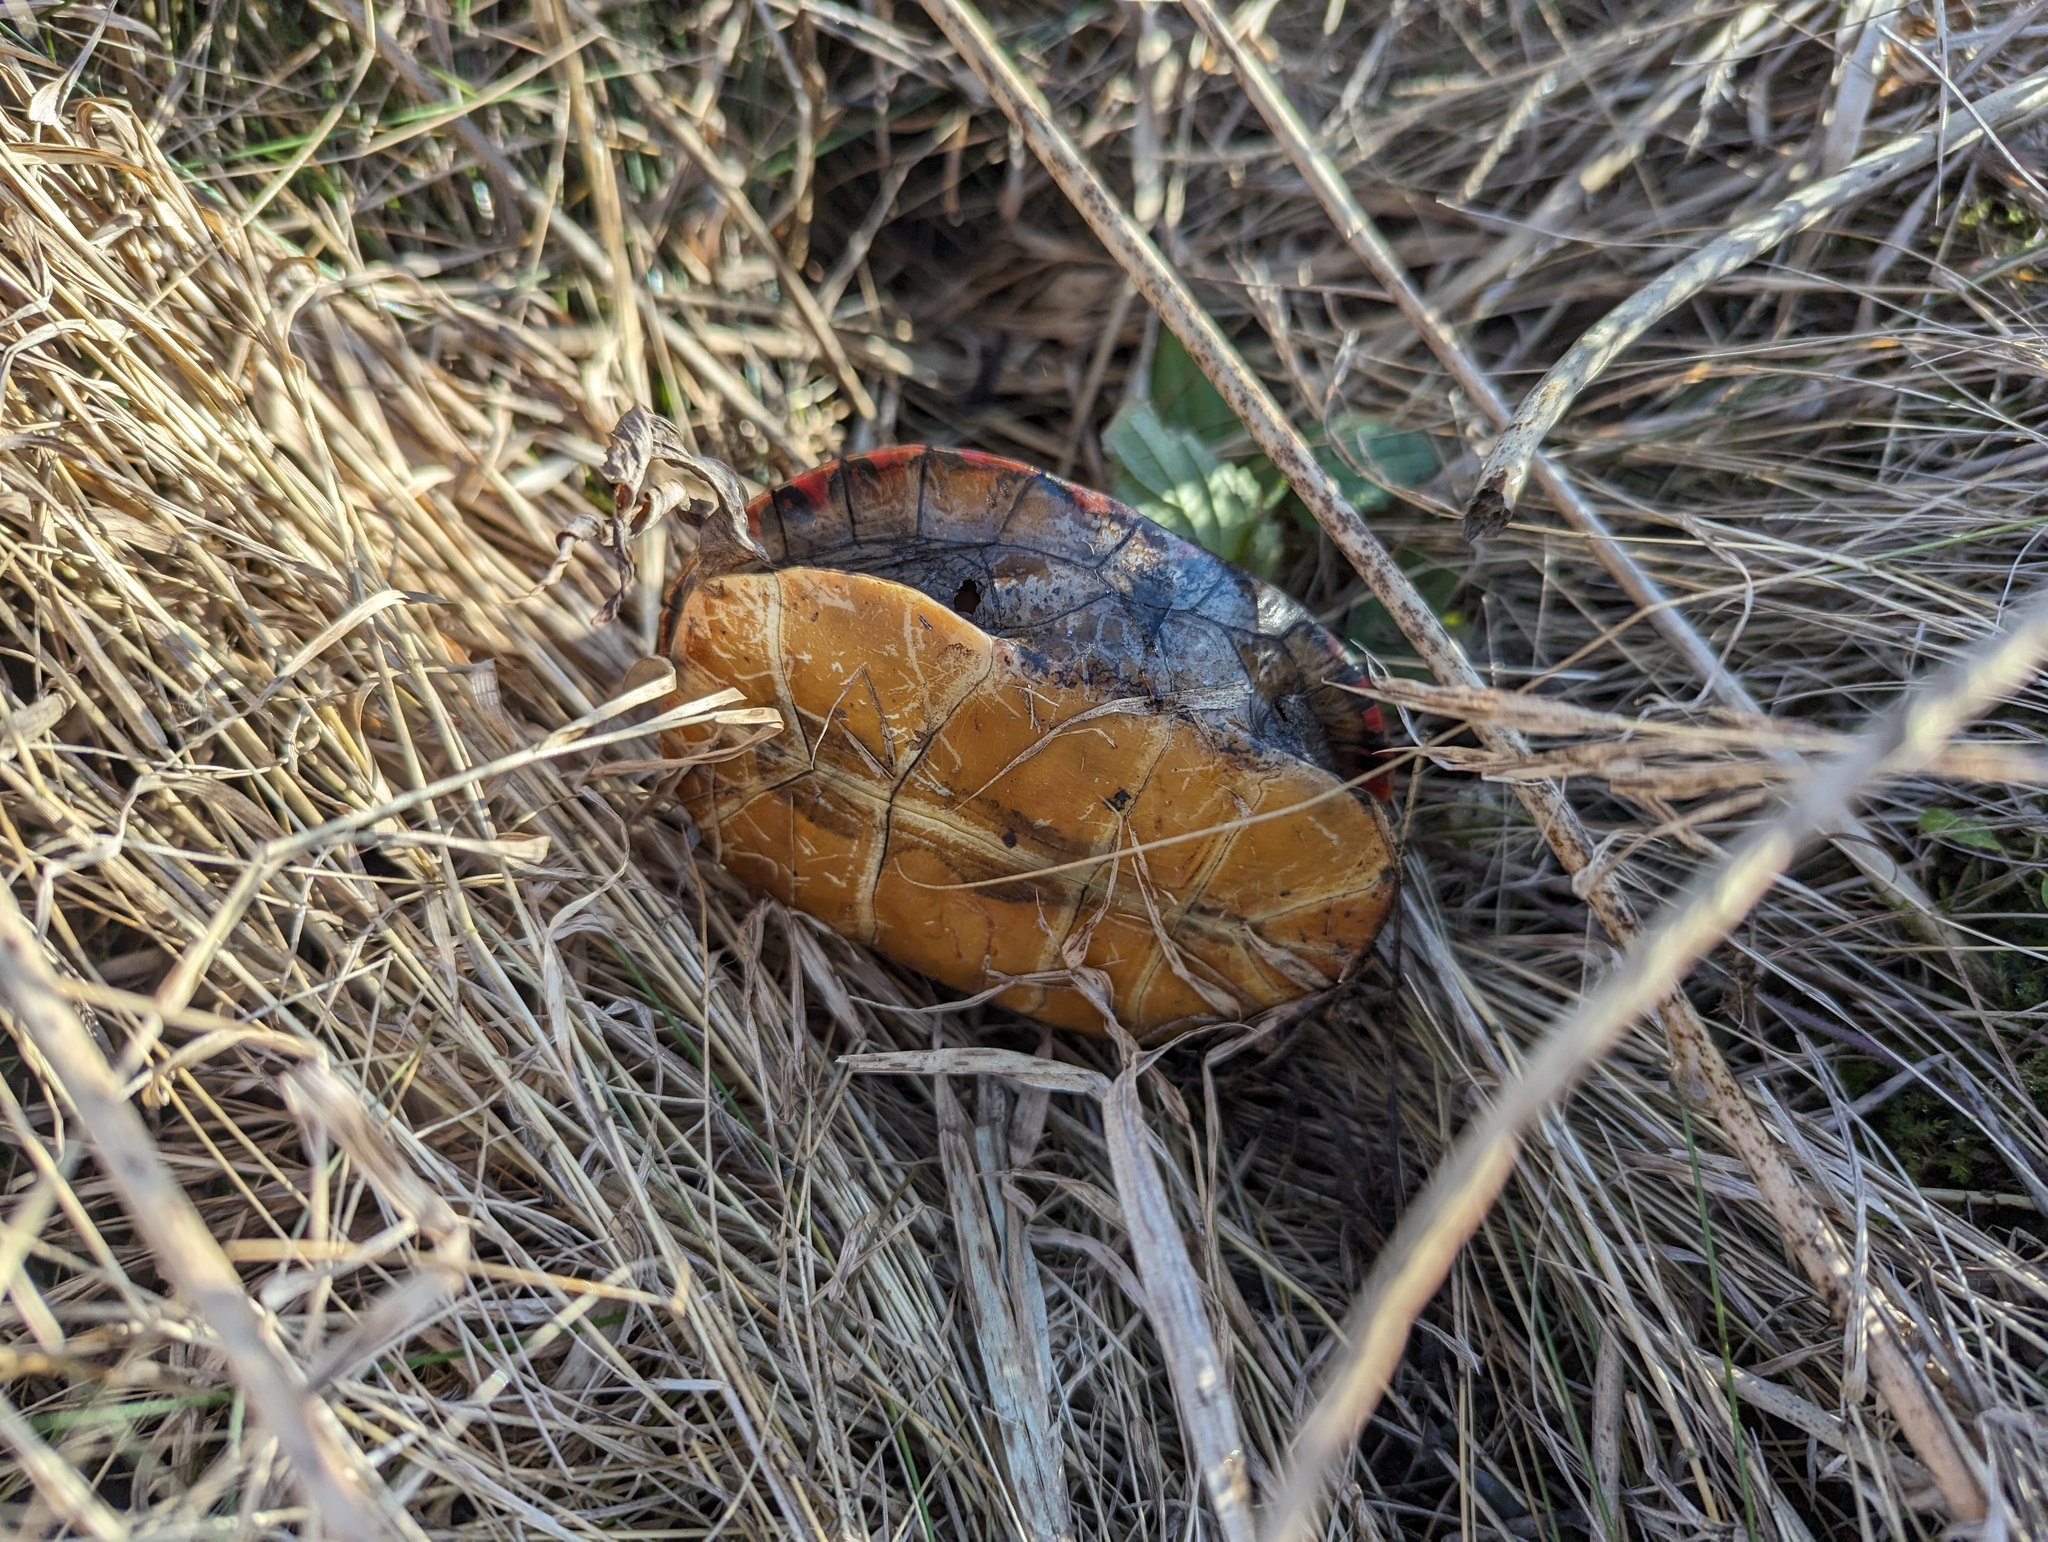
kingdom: Animalia
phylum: Chordata
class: Testudines
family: Emydidae
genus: Chrysemys
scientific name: Chrysemys picta
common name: Painted turtle
